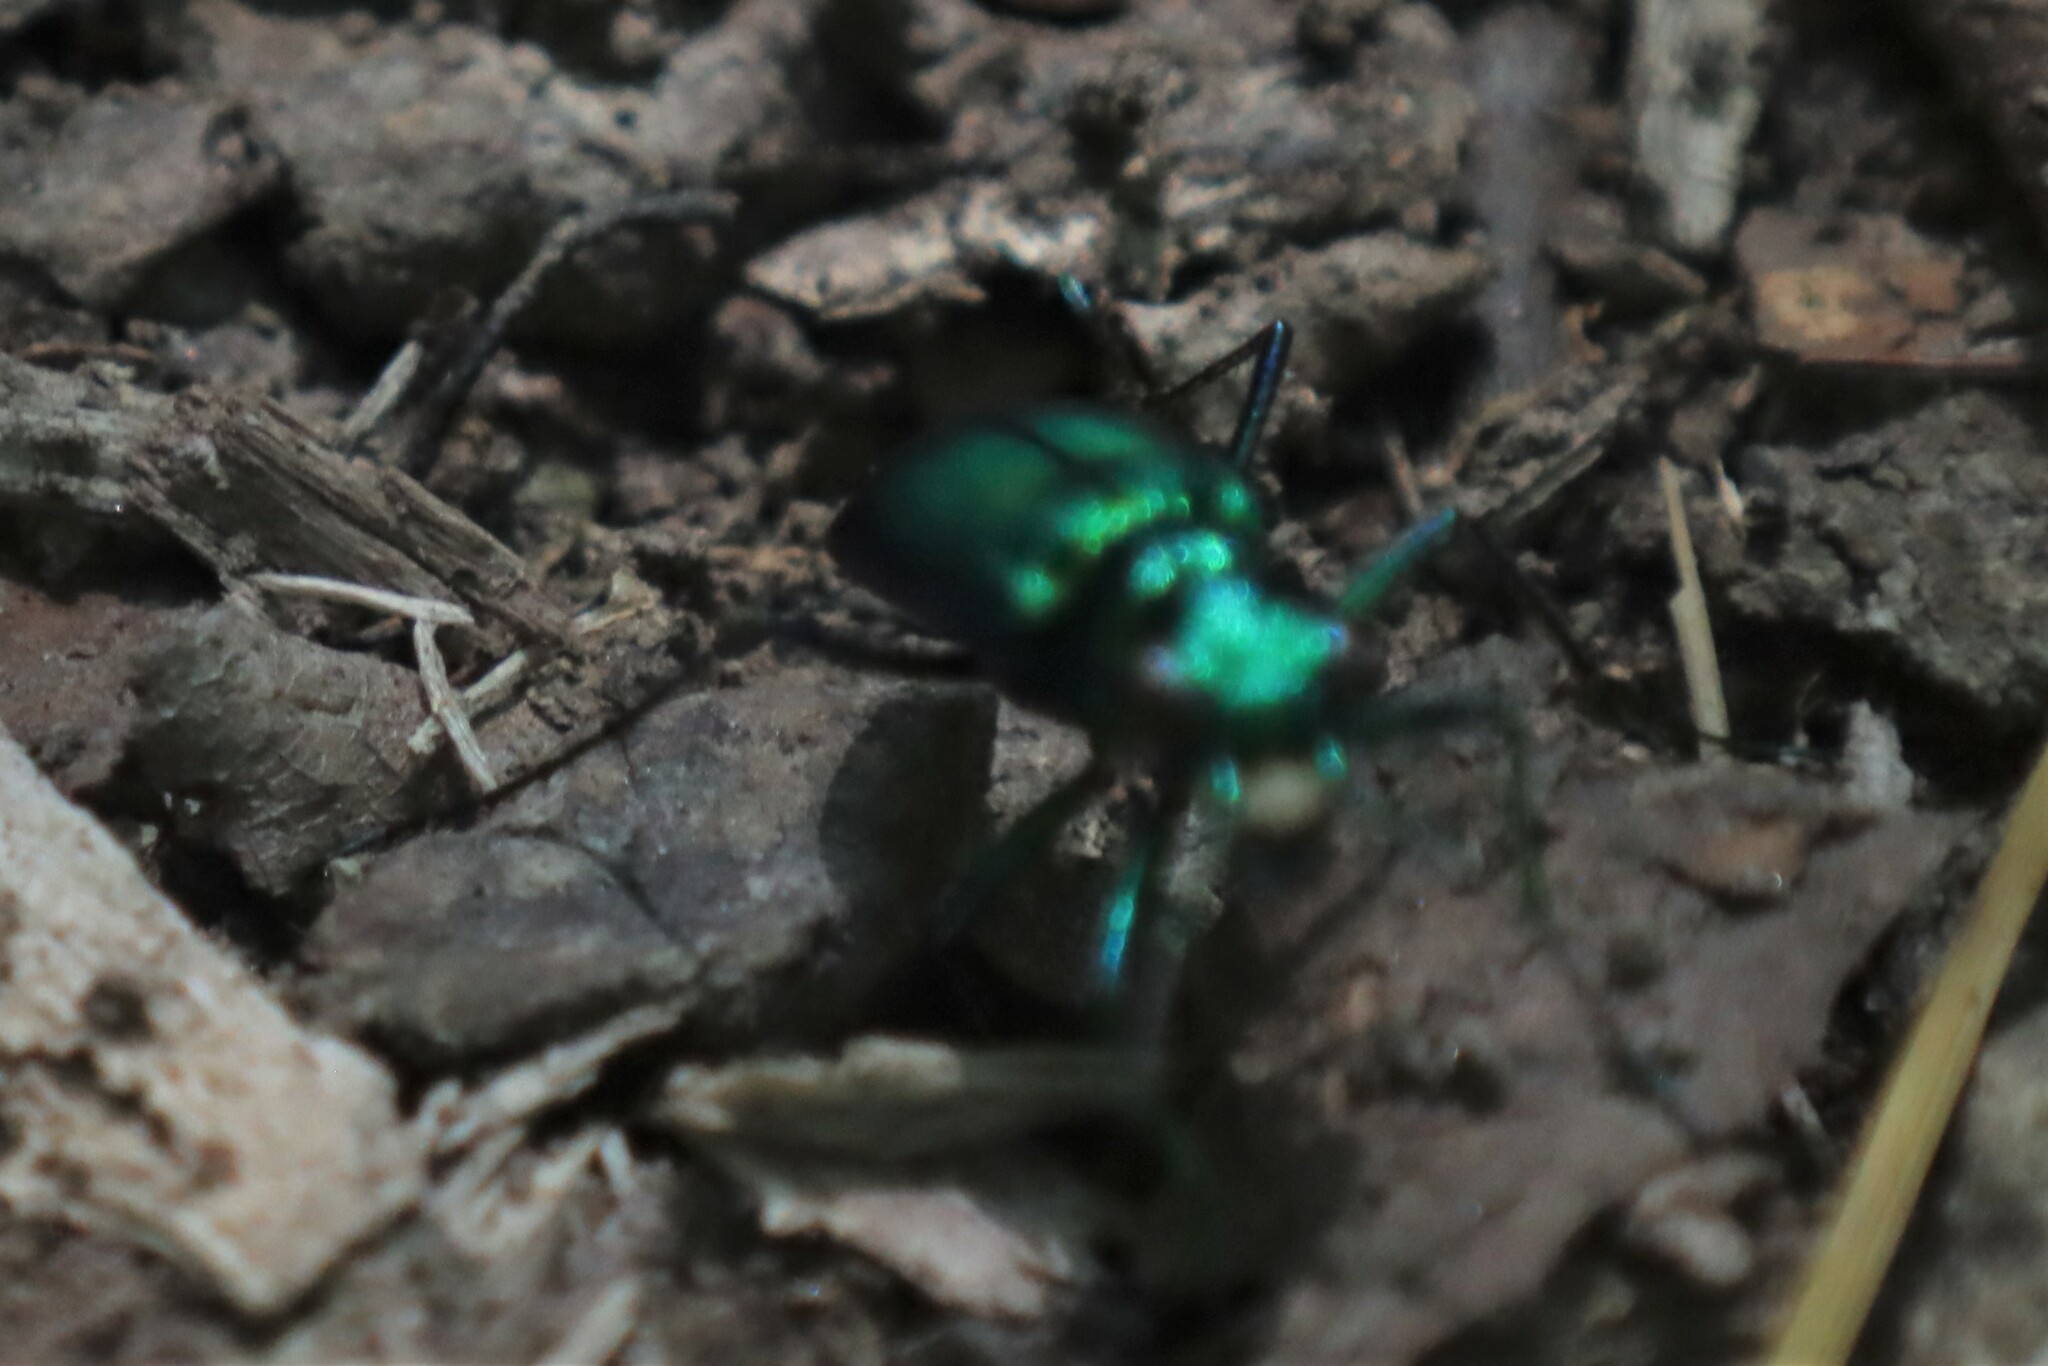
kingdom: Animalia
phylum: Arthropoda
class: Insecta
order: Coleoptera
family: Carabidae
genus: Cicindela
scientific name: Cicindela sexguttata
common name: Six-spotted tiger beetle
